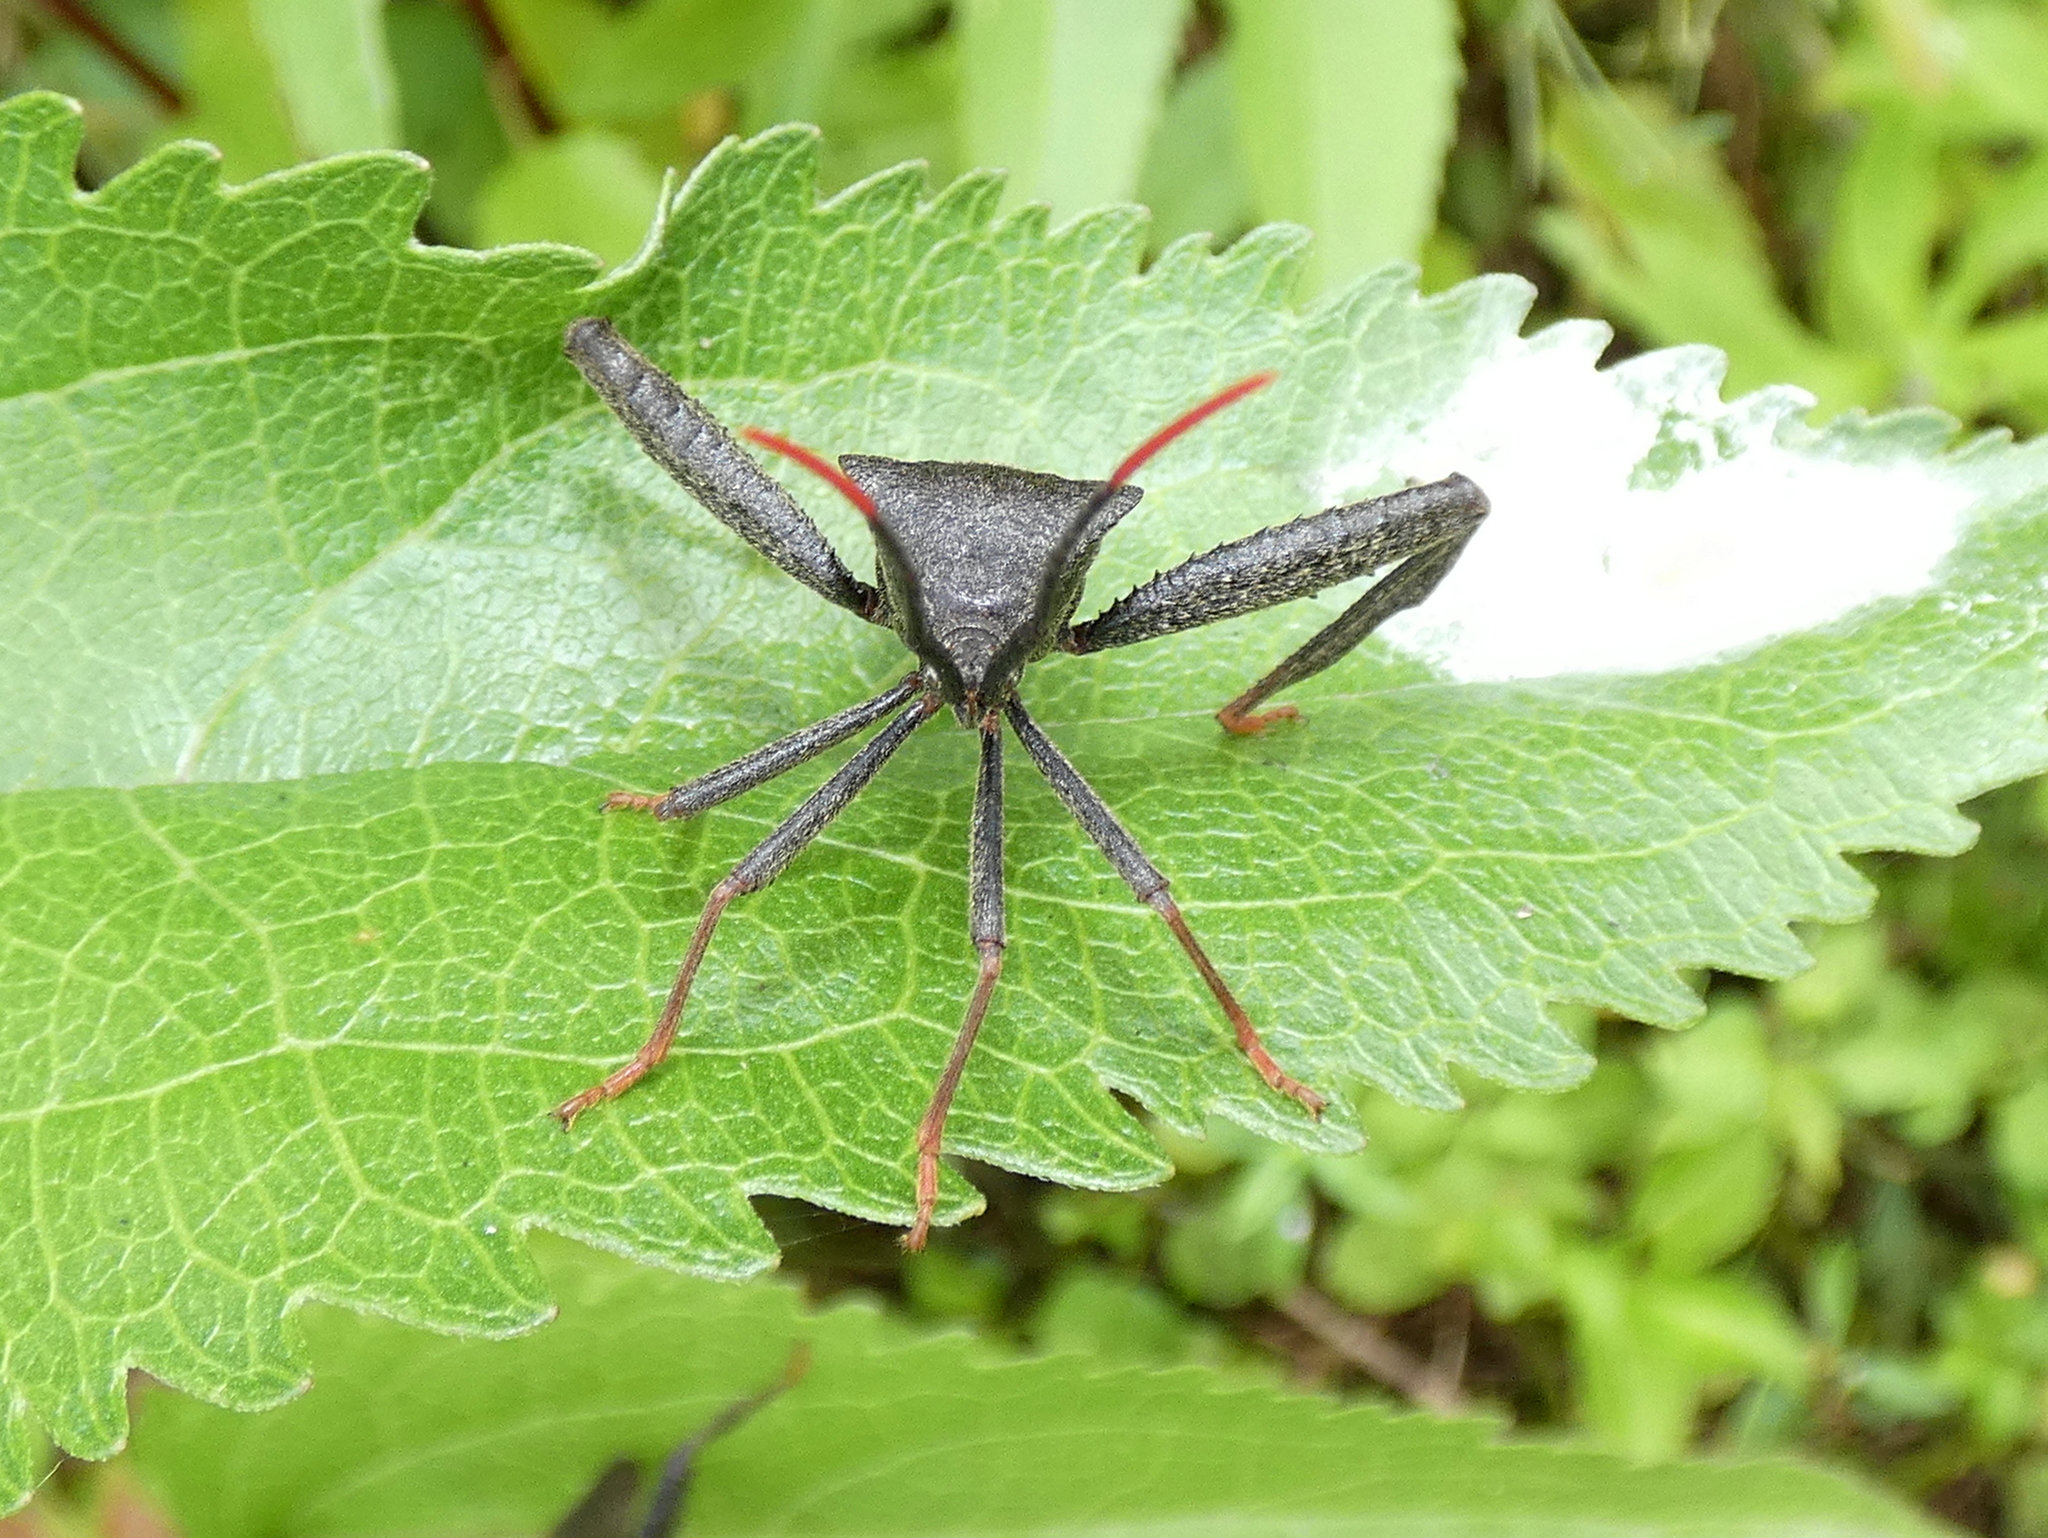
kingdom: Animalia
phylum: Arthropoda
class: Insecta
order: Hemiptera
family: Coreidae
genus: Acanthocephala
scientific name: Acanthocephala terminalis
